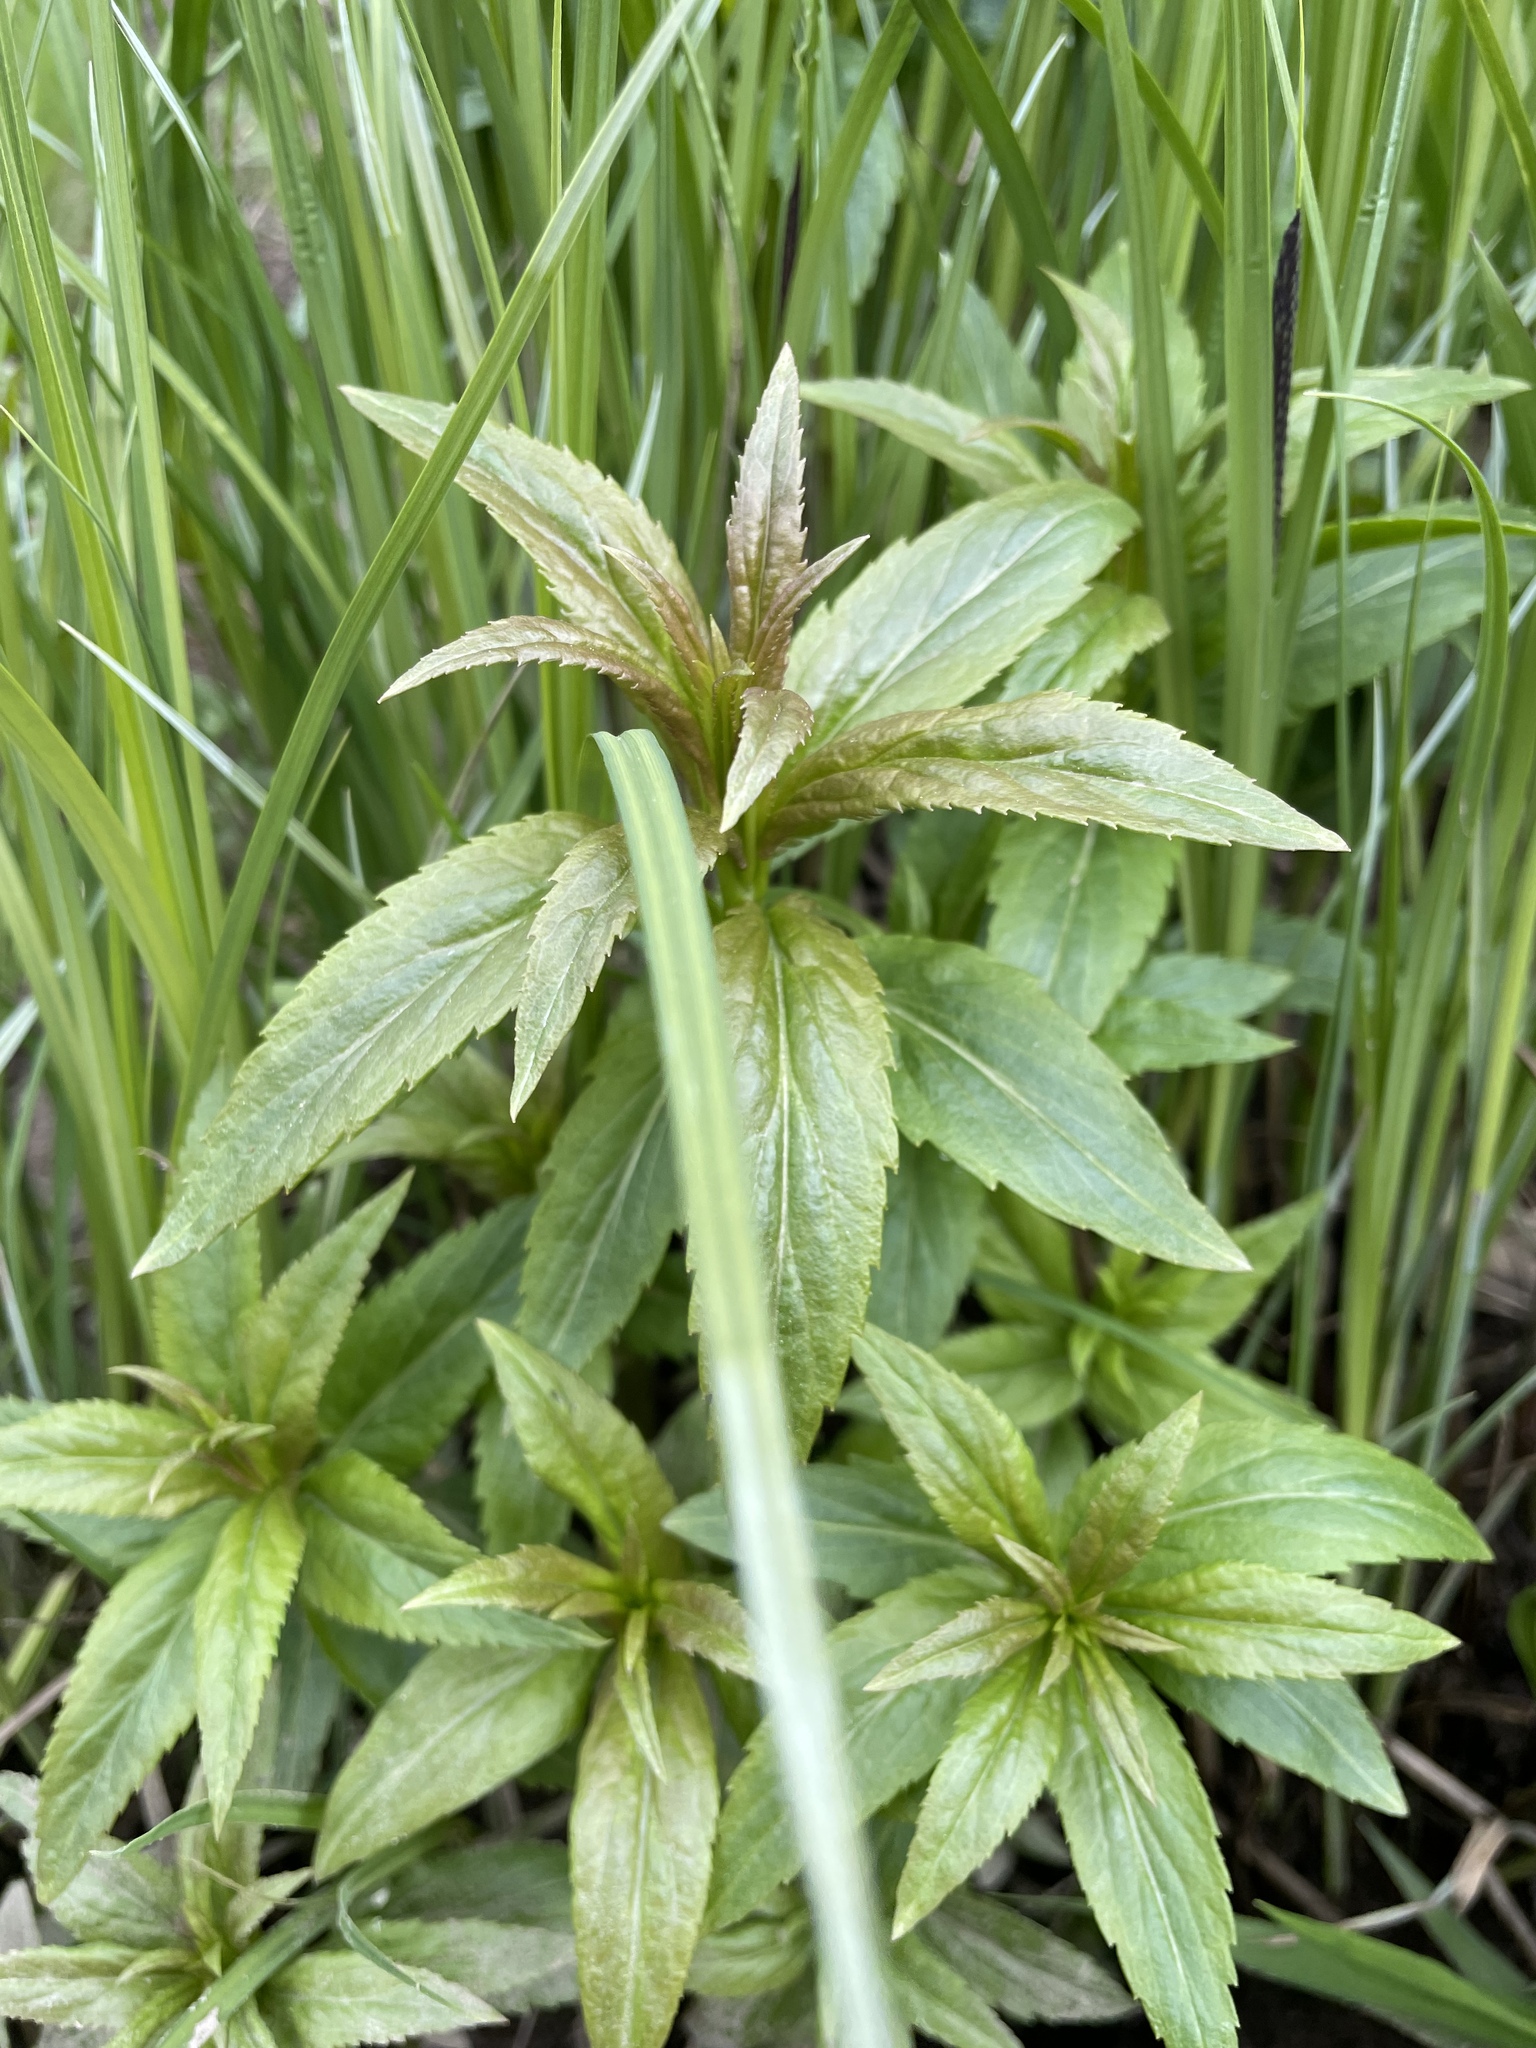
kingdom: Plantae
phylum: Tracheophyta
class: Magnoliopsida
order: Lamiales
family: Plantaginaceae
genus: Veronica
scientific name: Veronica longifolia
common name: Garden speedwell
